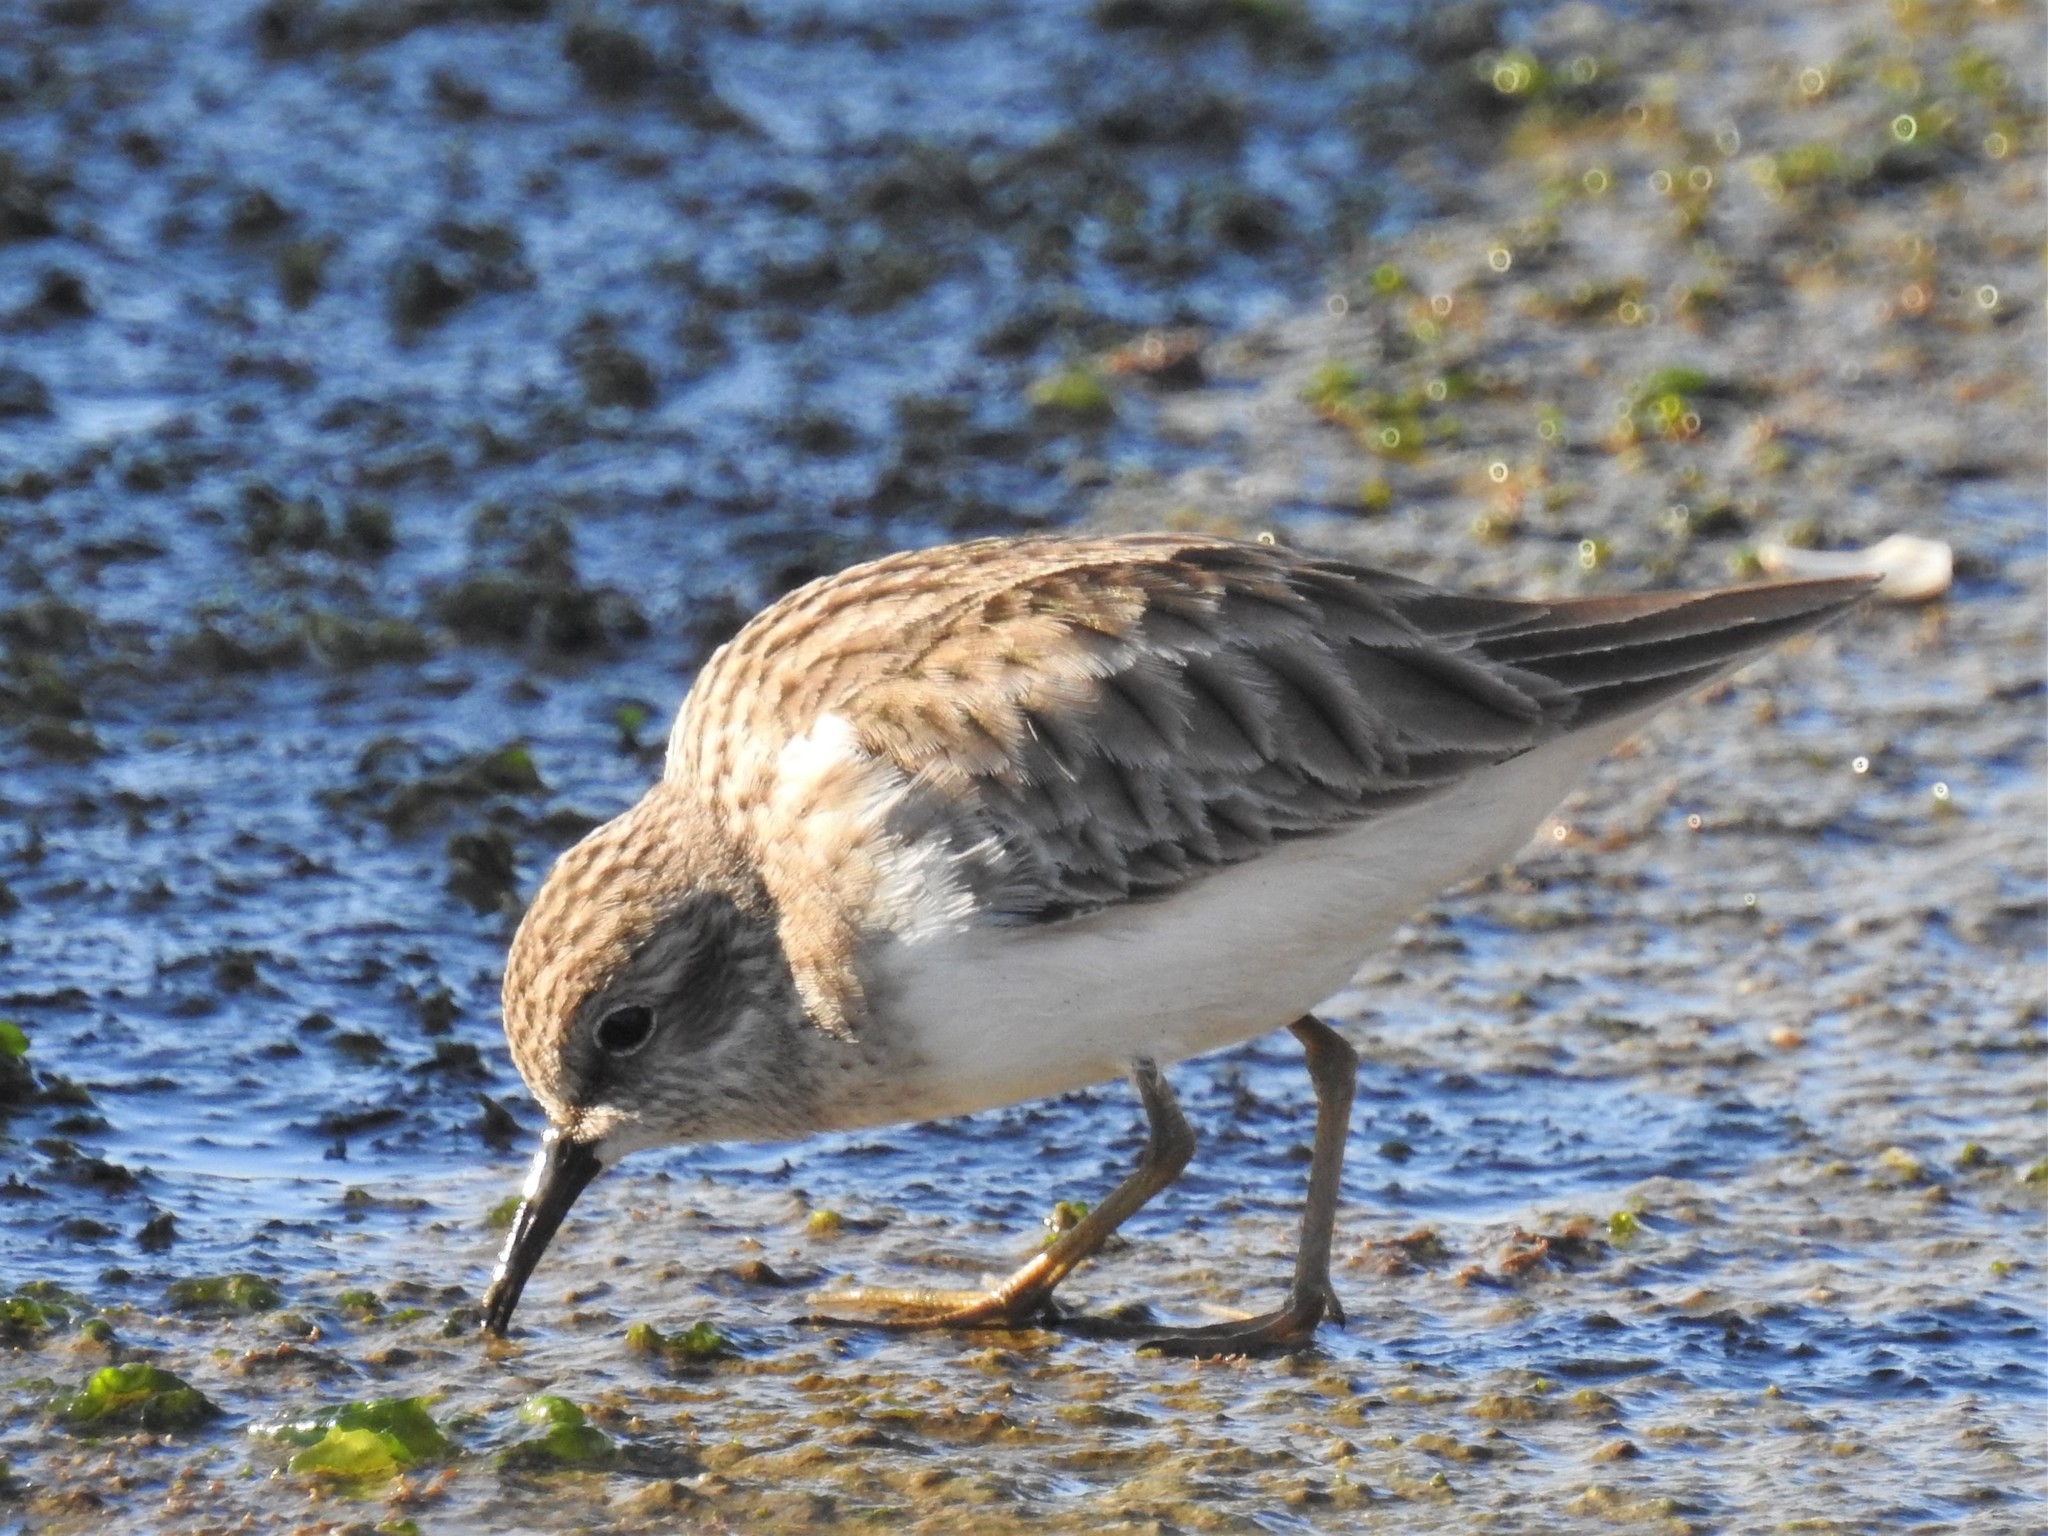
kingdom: Animalia
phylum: Chordata
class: Aves
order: Charadriiformes
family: Scolopacidae
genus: Calidris
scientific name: Calidris minutilla
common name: Least sandpiper
